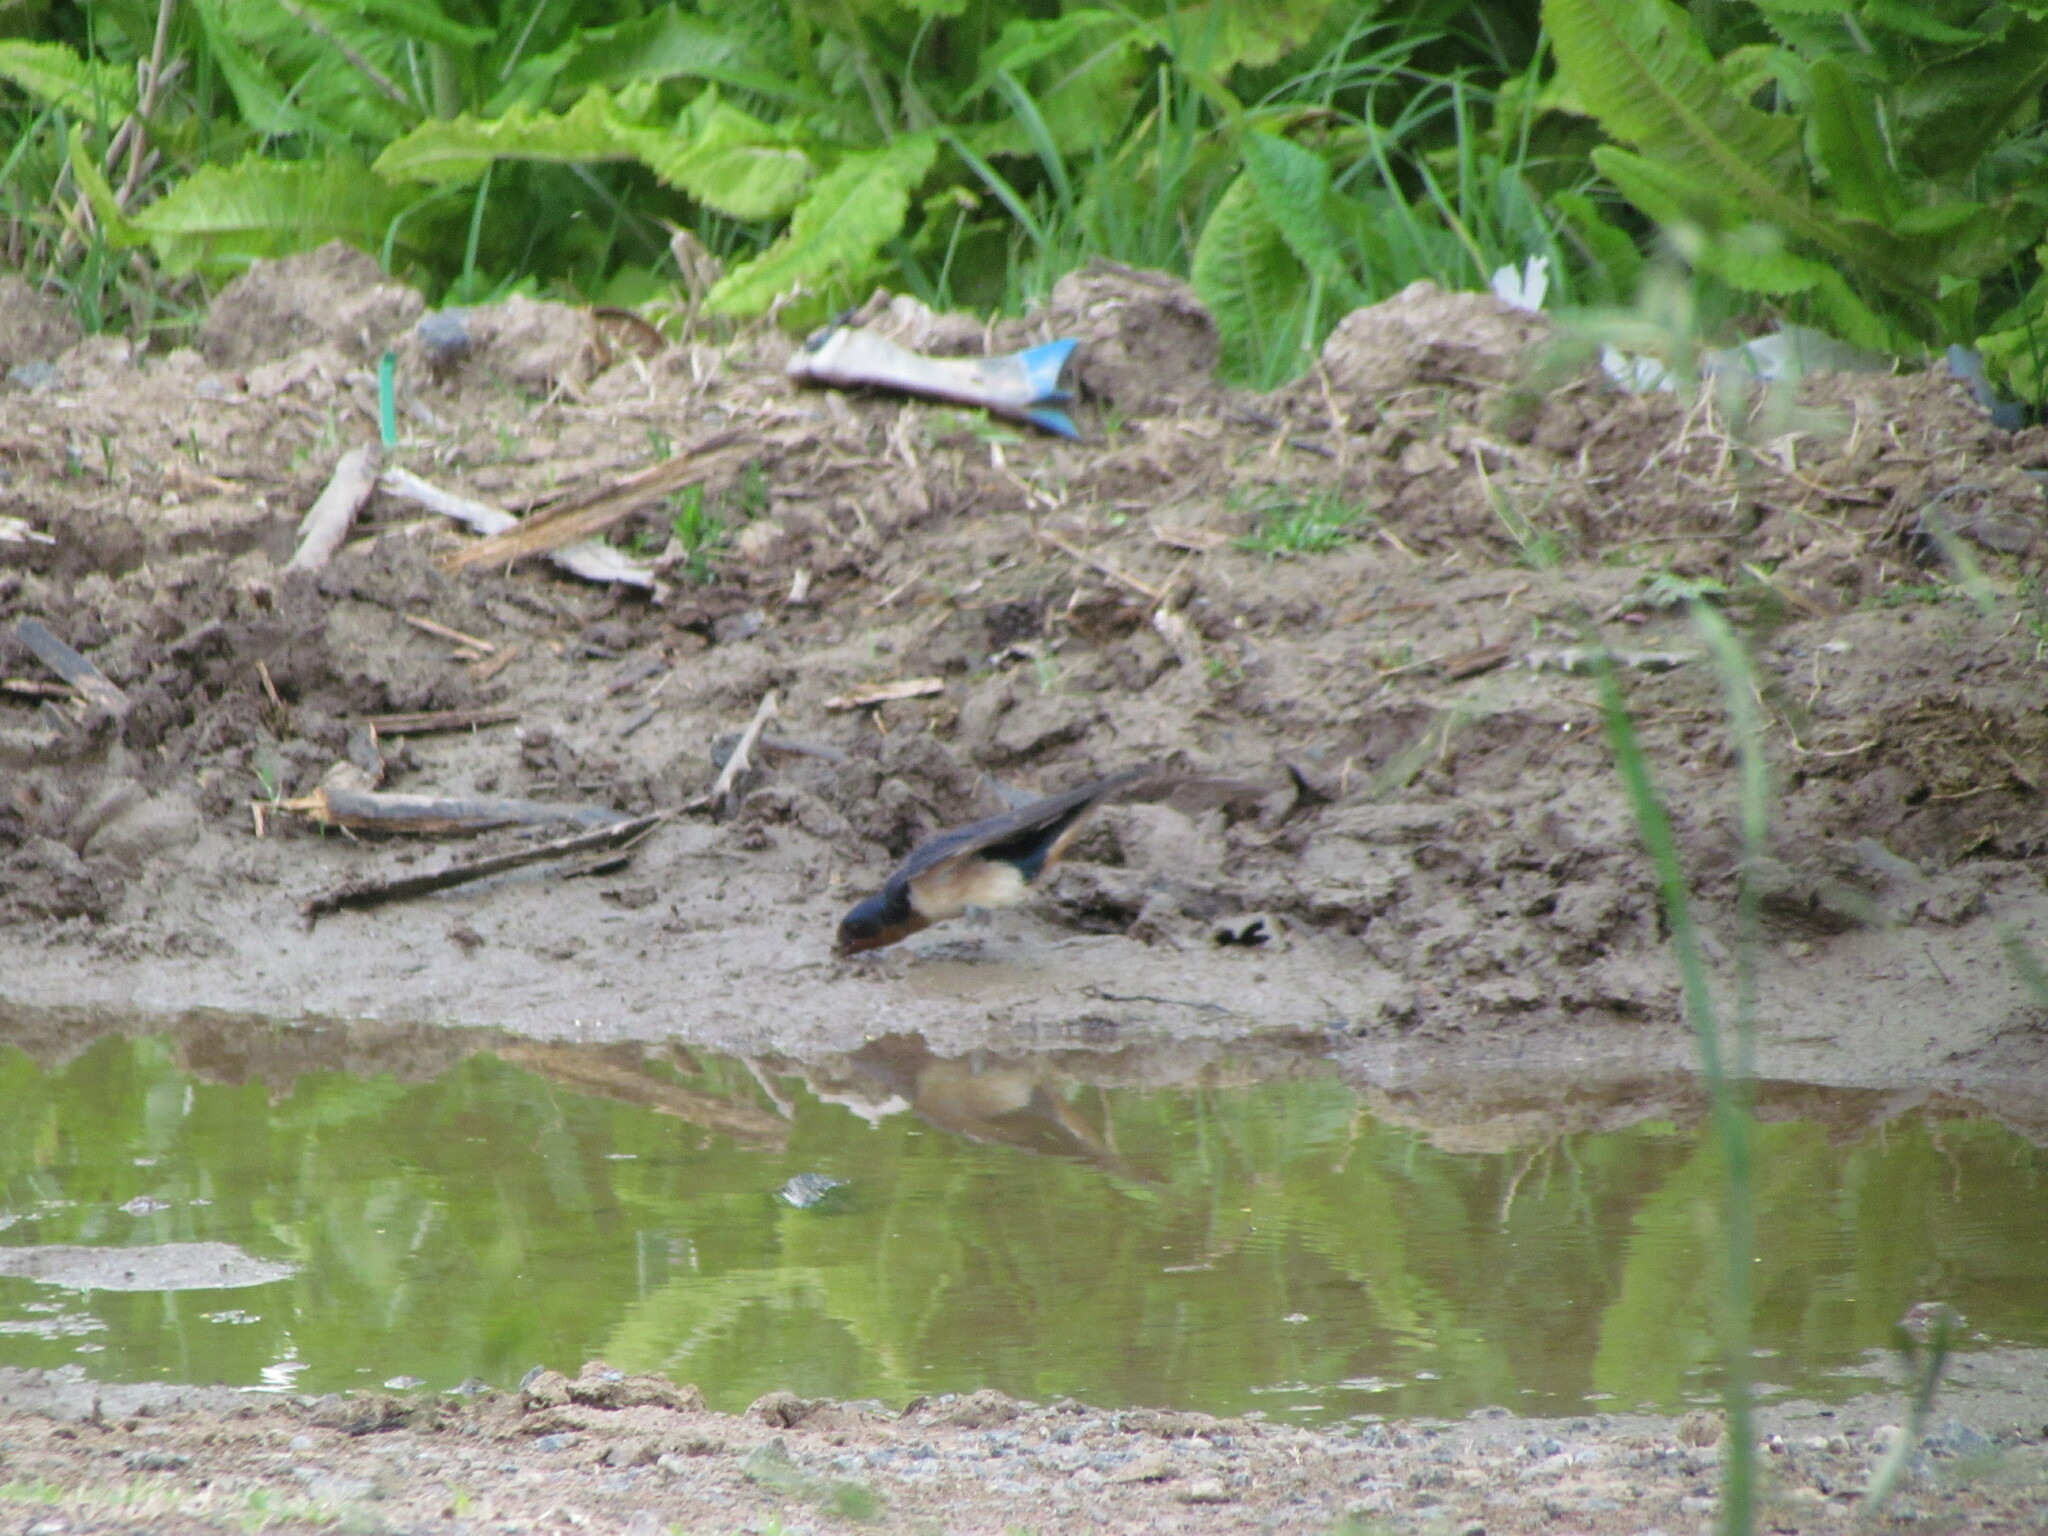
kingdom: Animalia
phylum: Chordata
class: Aves
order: Passeriformes
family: Hirundinidae
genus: Hirundo
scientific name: Hirundo rustica
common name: Barn swallow
